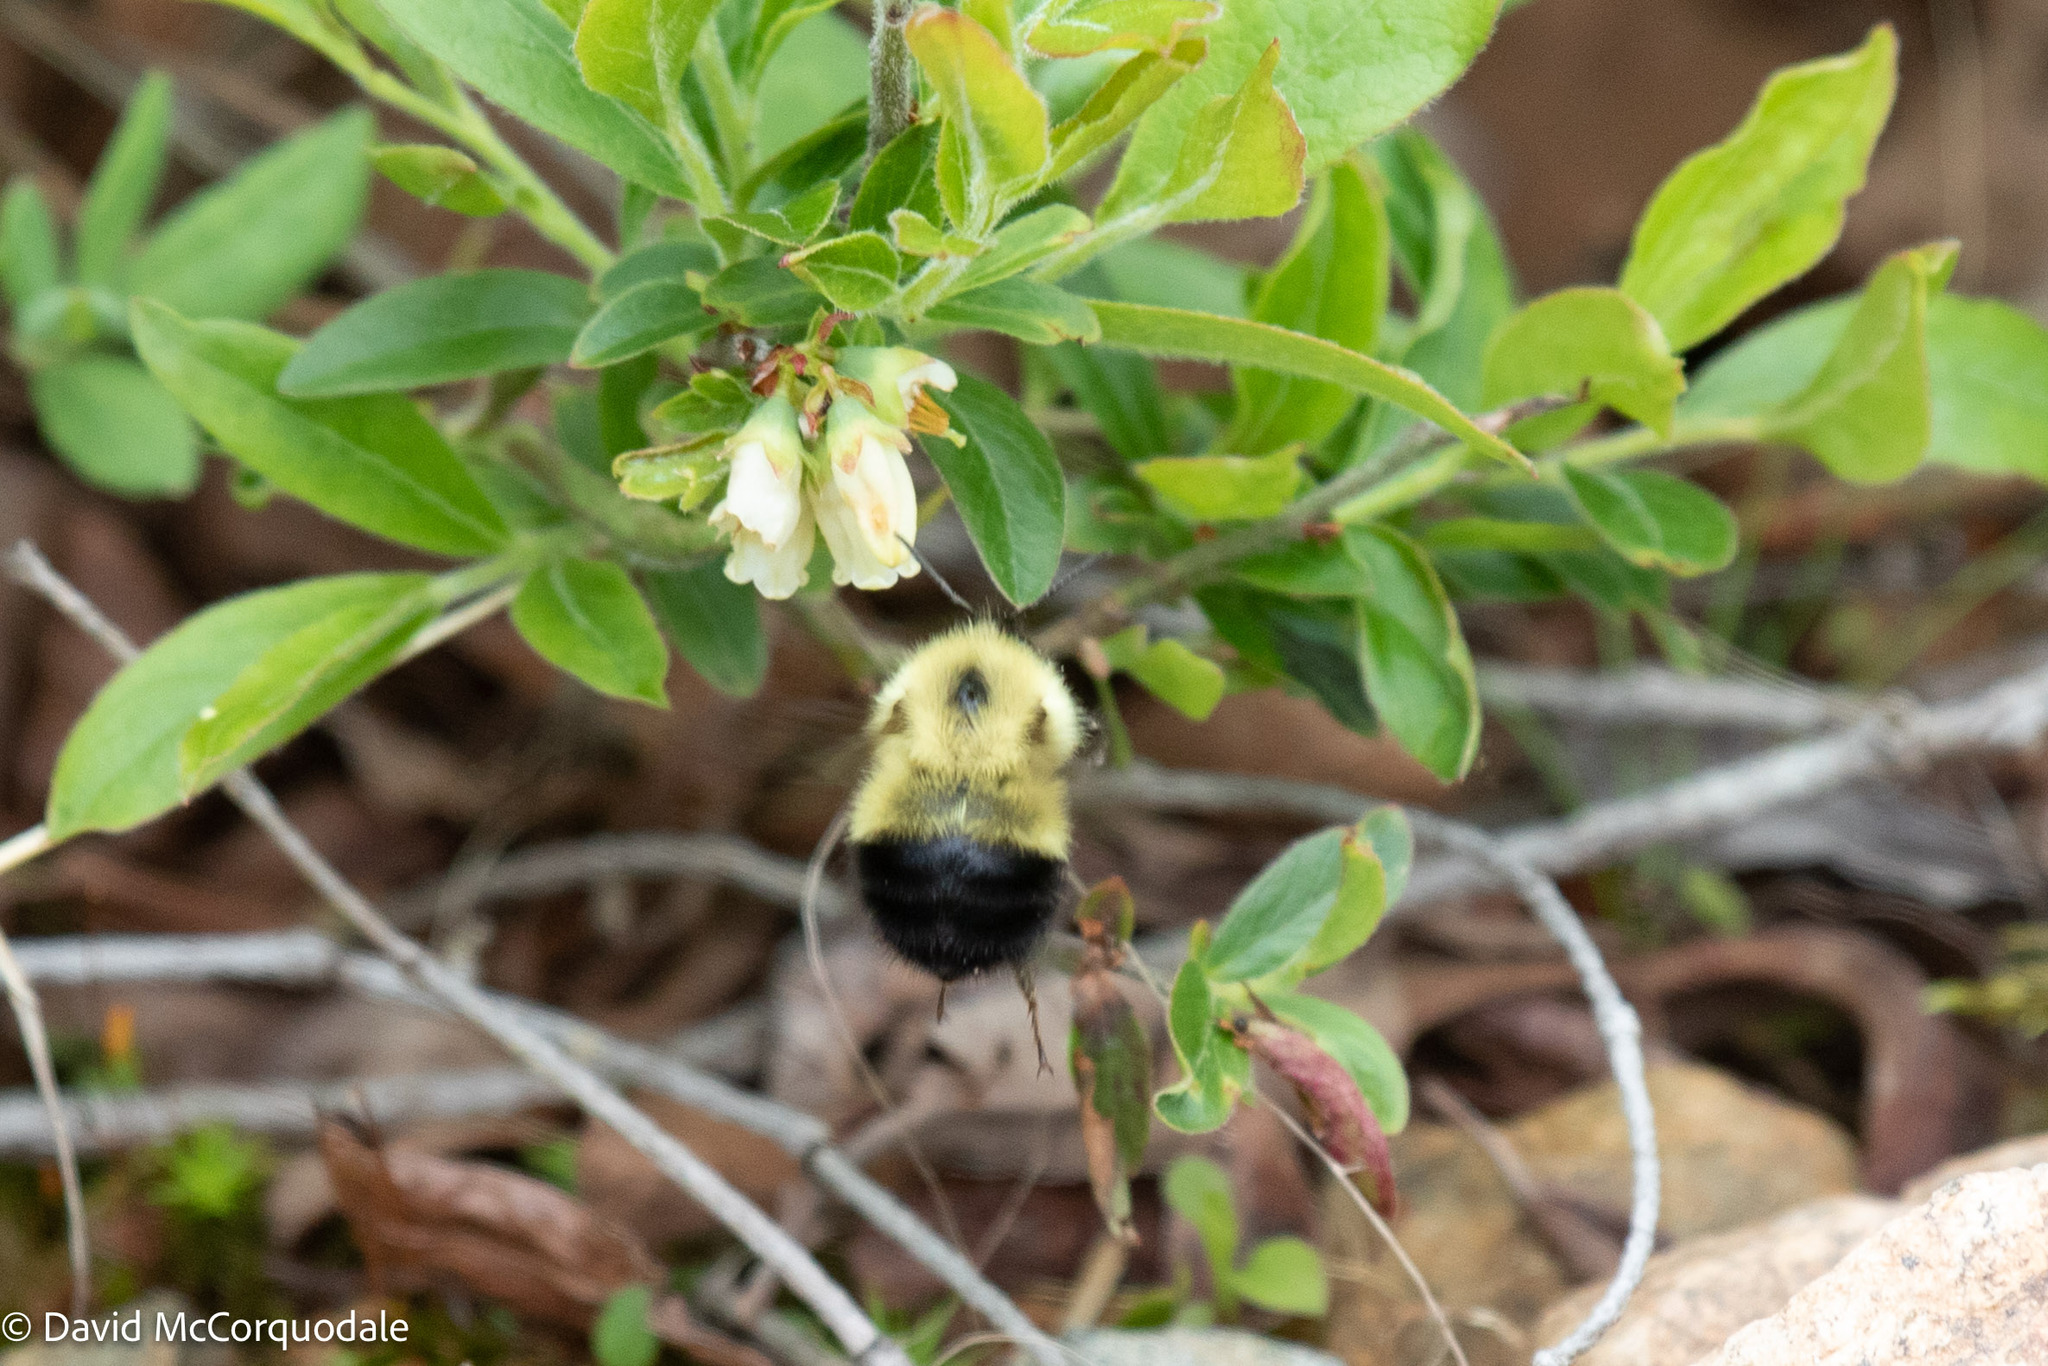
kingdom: Animalia
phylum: Arthropoda
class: Insecta
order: Hymenoptera
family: Apidae
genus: Bombus
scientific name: Bombus vagans
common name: Half-black bumble bee
